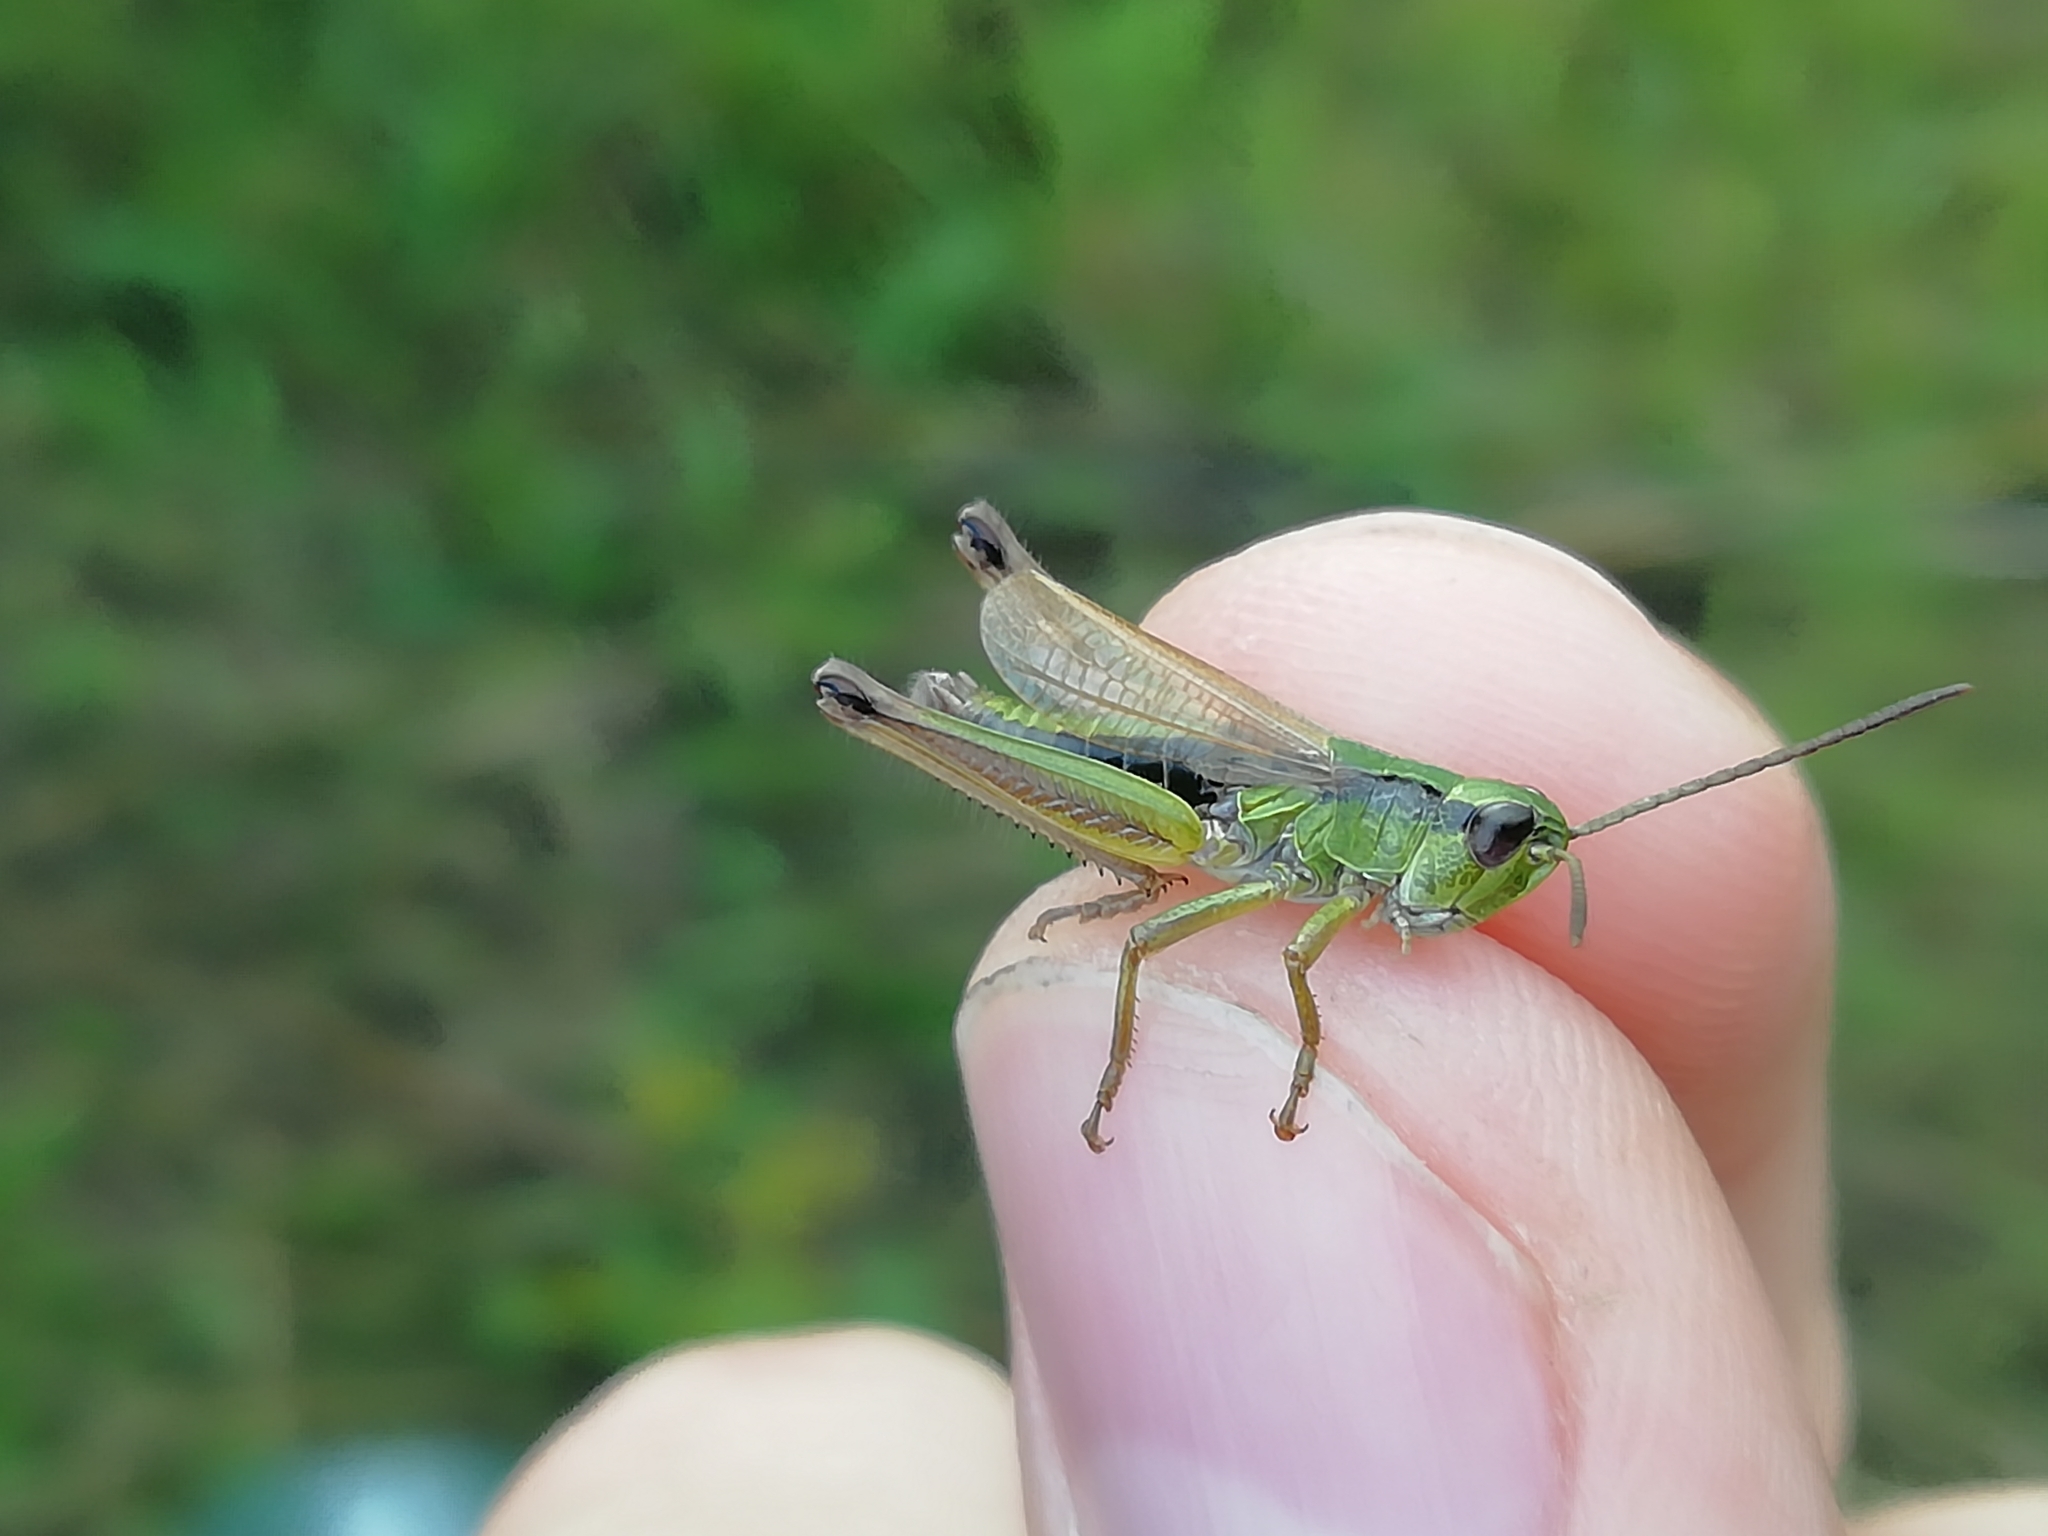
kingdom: Animalia
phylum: Arthropoda
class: Insecta
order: Orthoptera
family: Acrididae
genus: Chorthippus
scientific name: Chorthippus fallax
